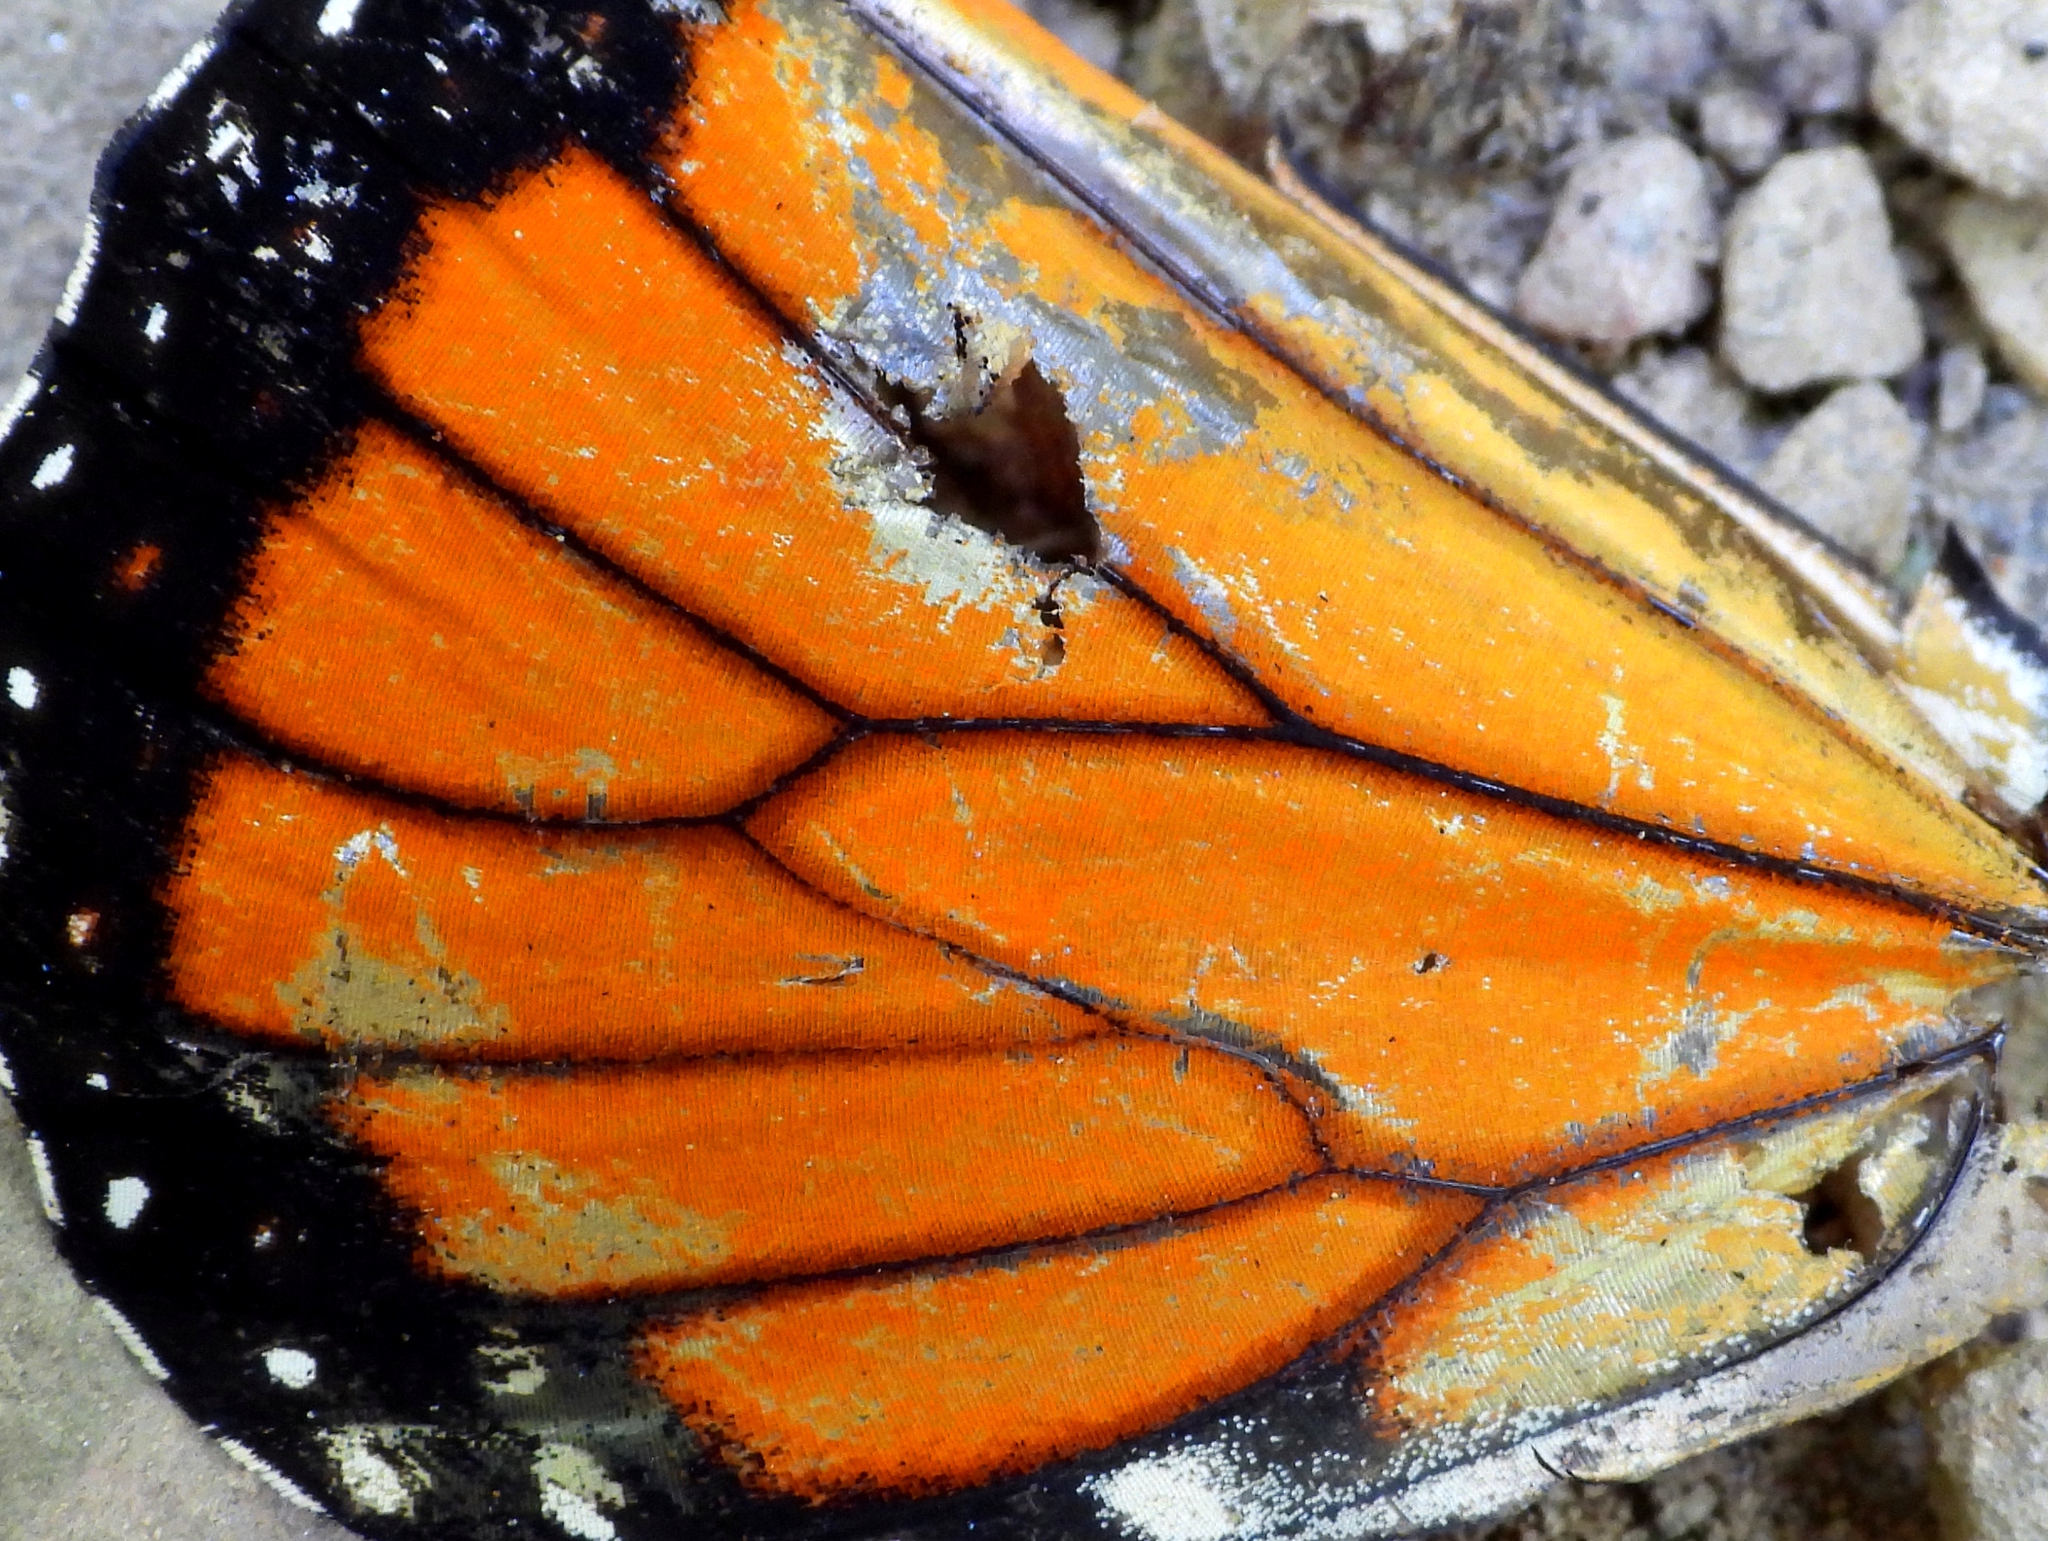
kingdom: Animalia
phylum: Arthropoda
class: Insecta
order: Lepidoptera
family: Nymphalidae
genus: Danaus
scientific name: Danaus plexippus
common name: Monarch
